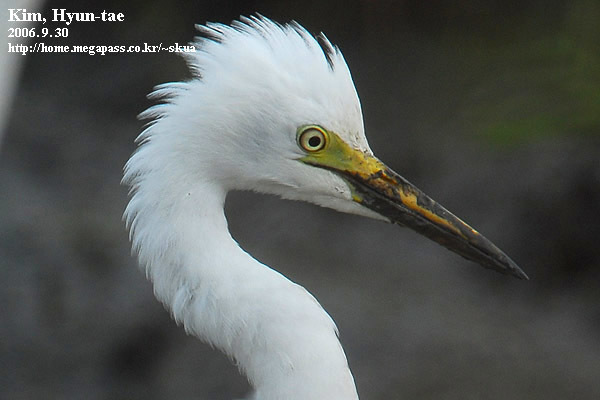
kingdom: Animalia
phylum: Chordata
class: Aves
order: Pelecaniformes
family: Ardeidae
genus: Egretta
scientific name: Egretta intermedia
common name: Intermediate egret
